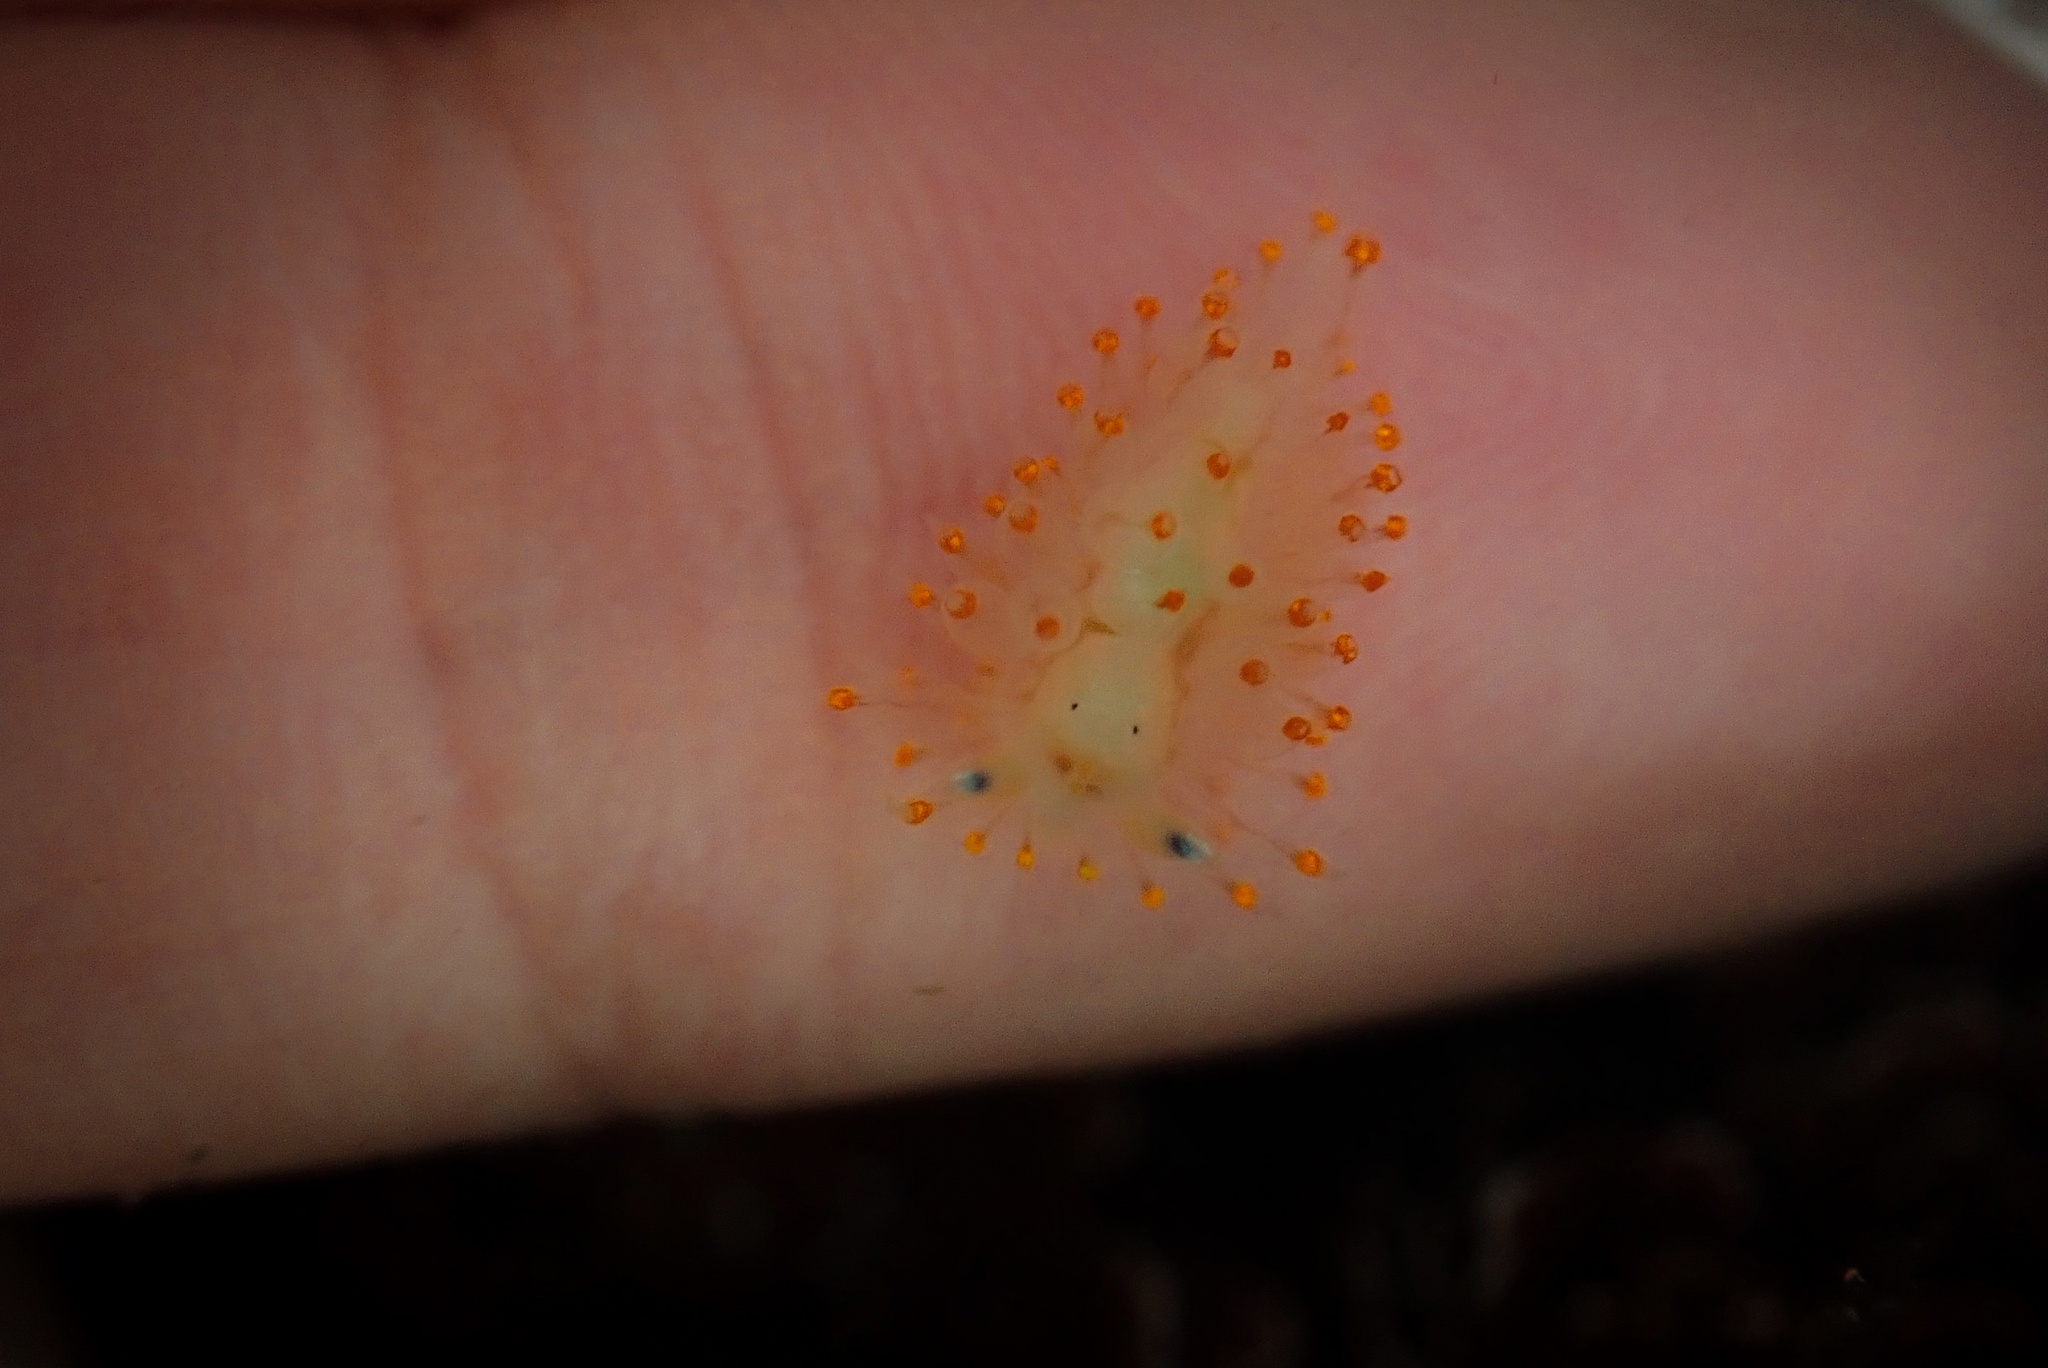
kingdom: Animalia
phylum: Mollusca
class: Gastropoda
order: Nudibranchia
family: Janolidae
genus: Antiopella
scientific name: Antiopella barbarensis
